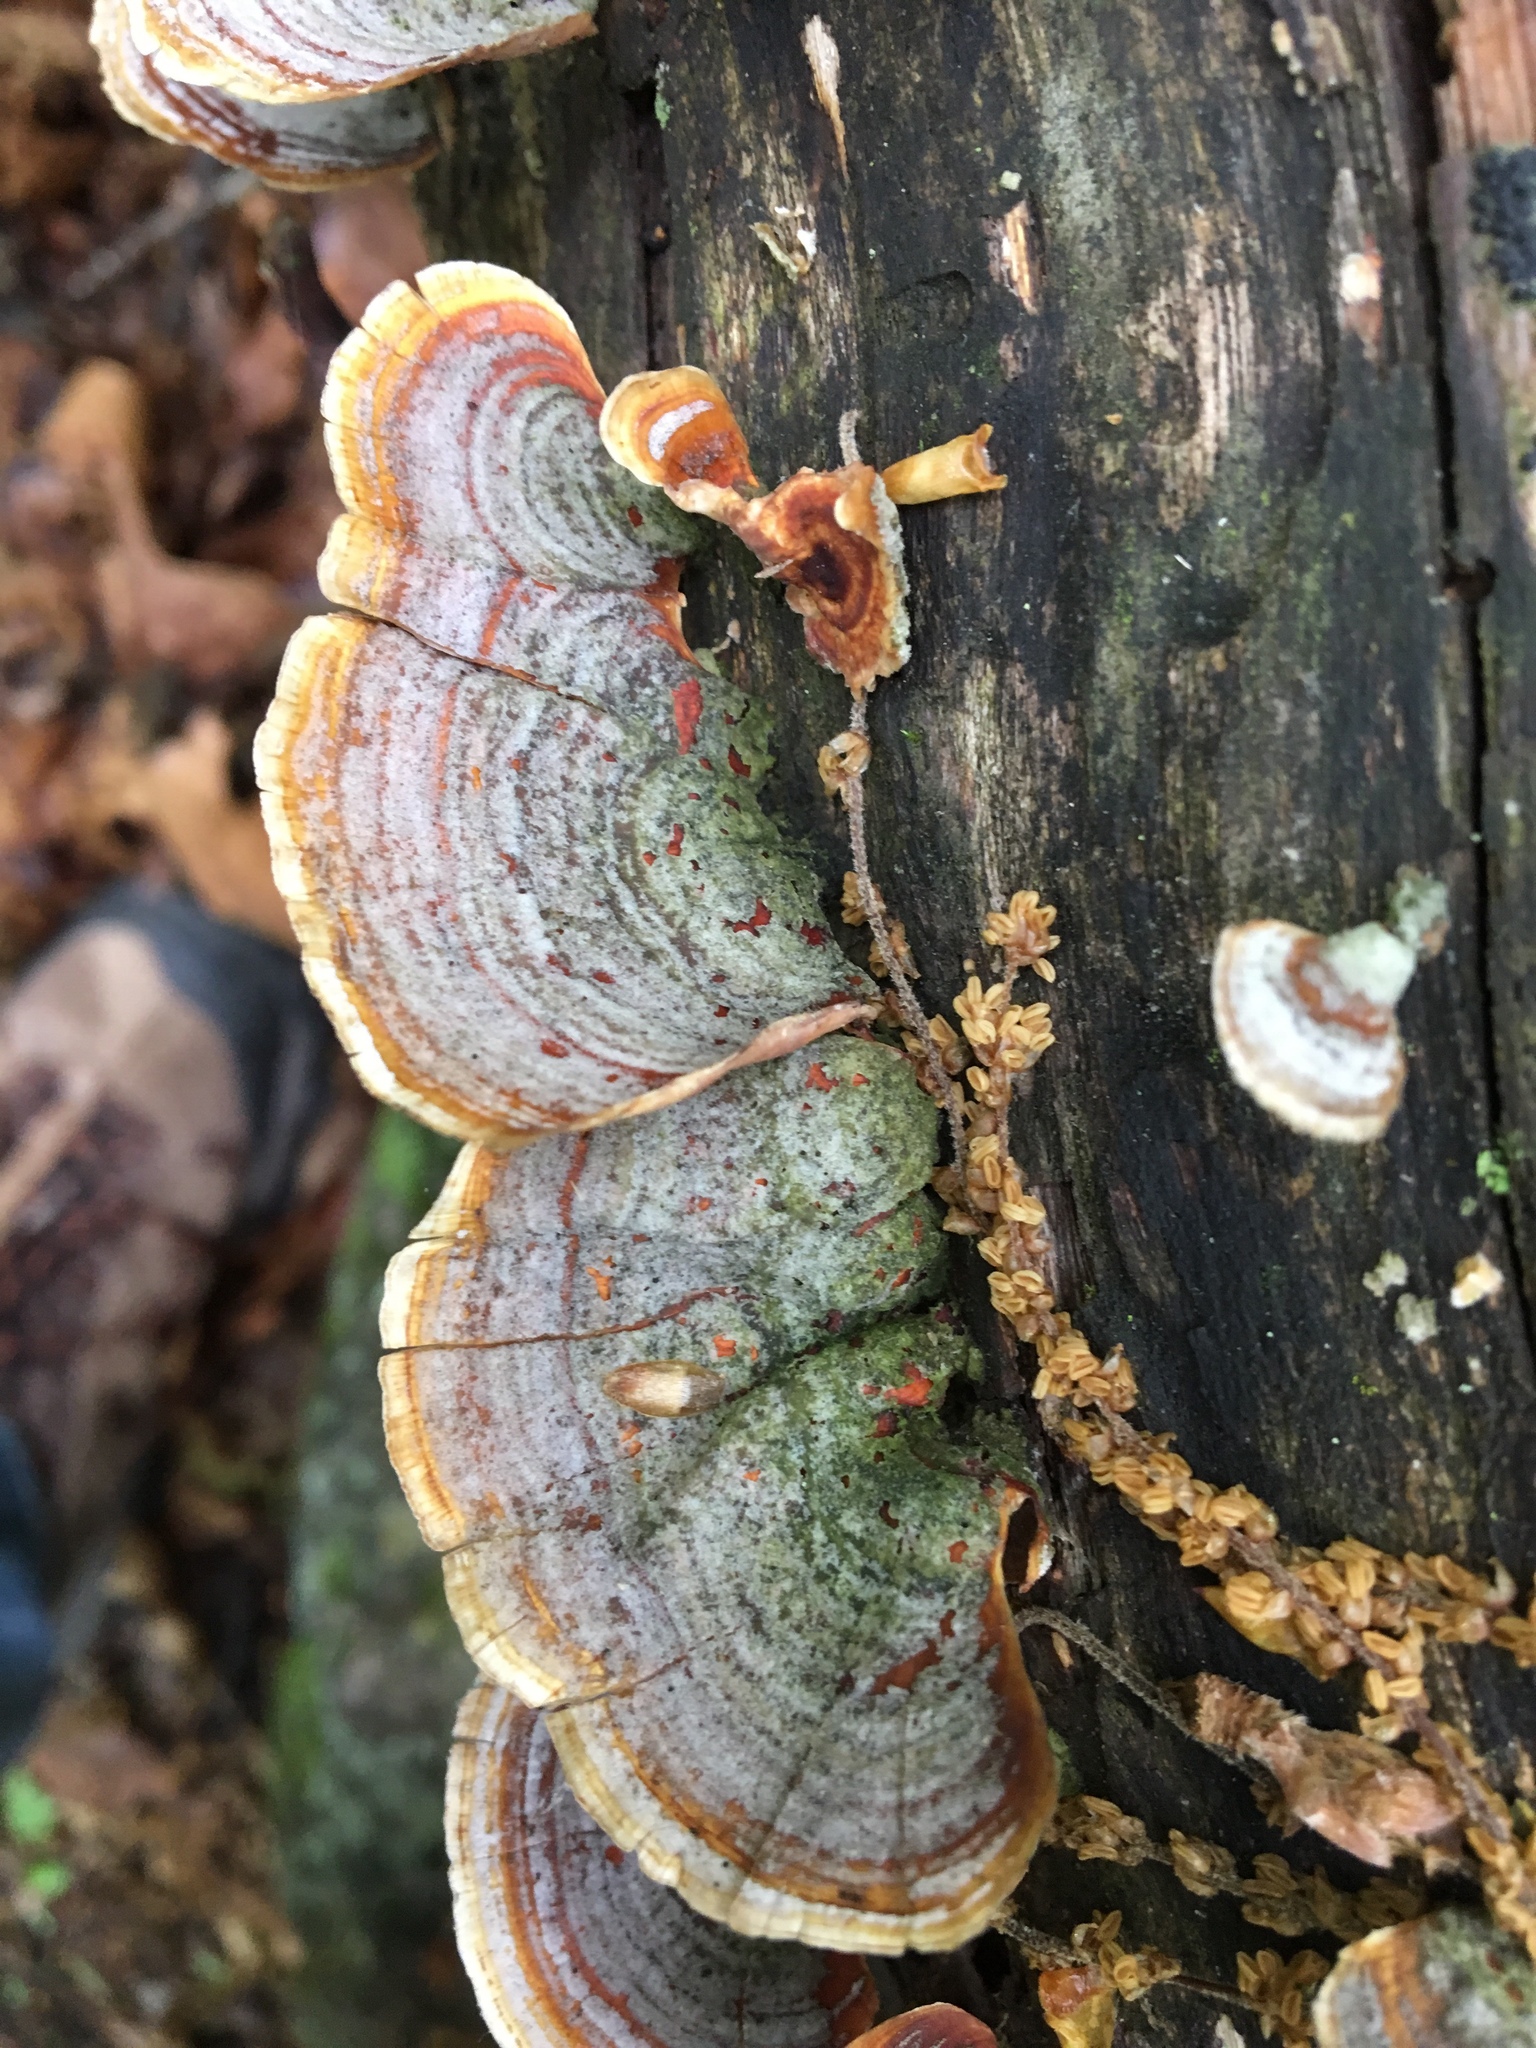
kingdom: Fungi
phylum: Basidiomycota
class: Agaricomycetes
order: Russulales
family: Stereaceae
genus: Stereum
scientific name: Stereum ostrea
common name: False turkeytail
